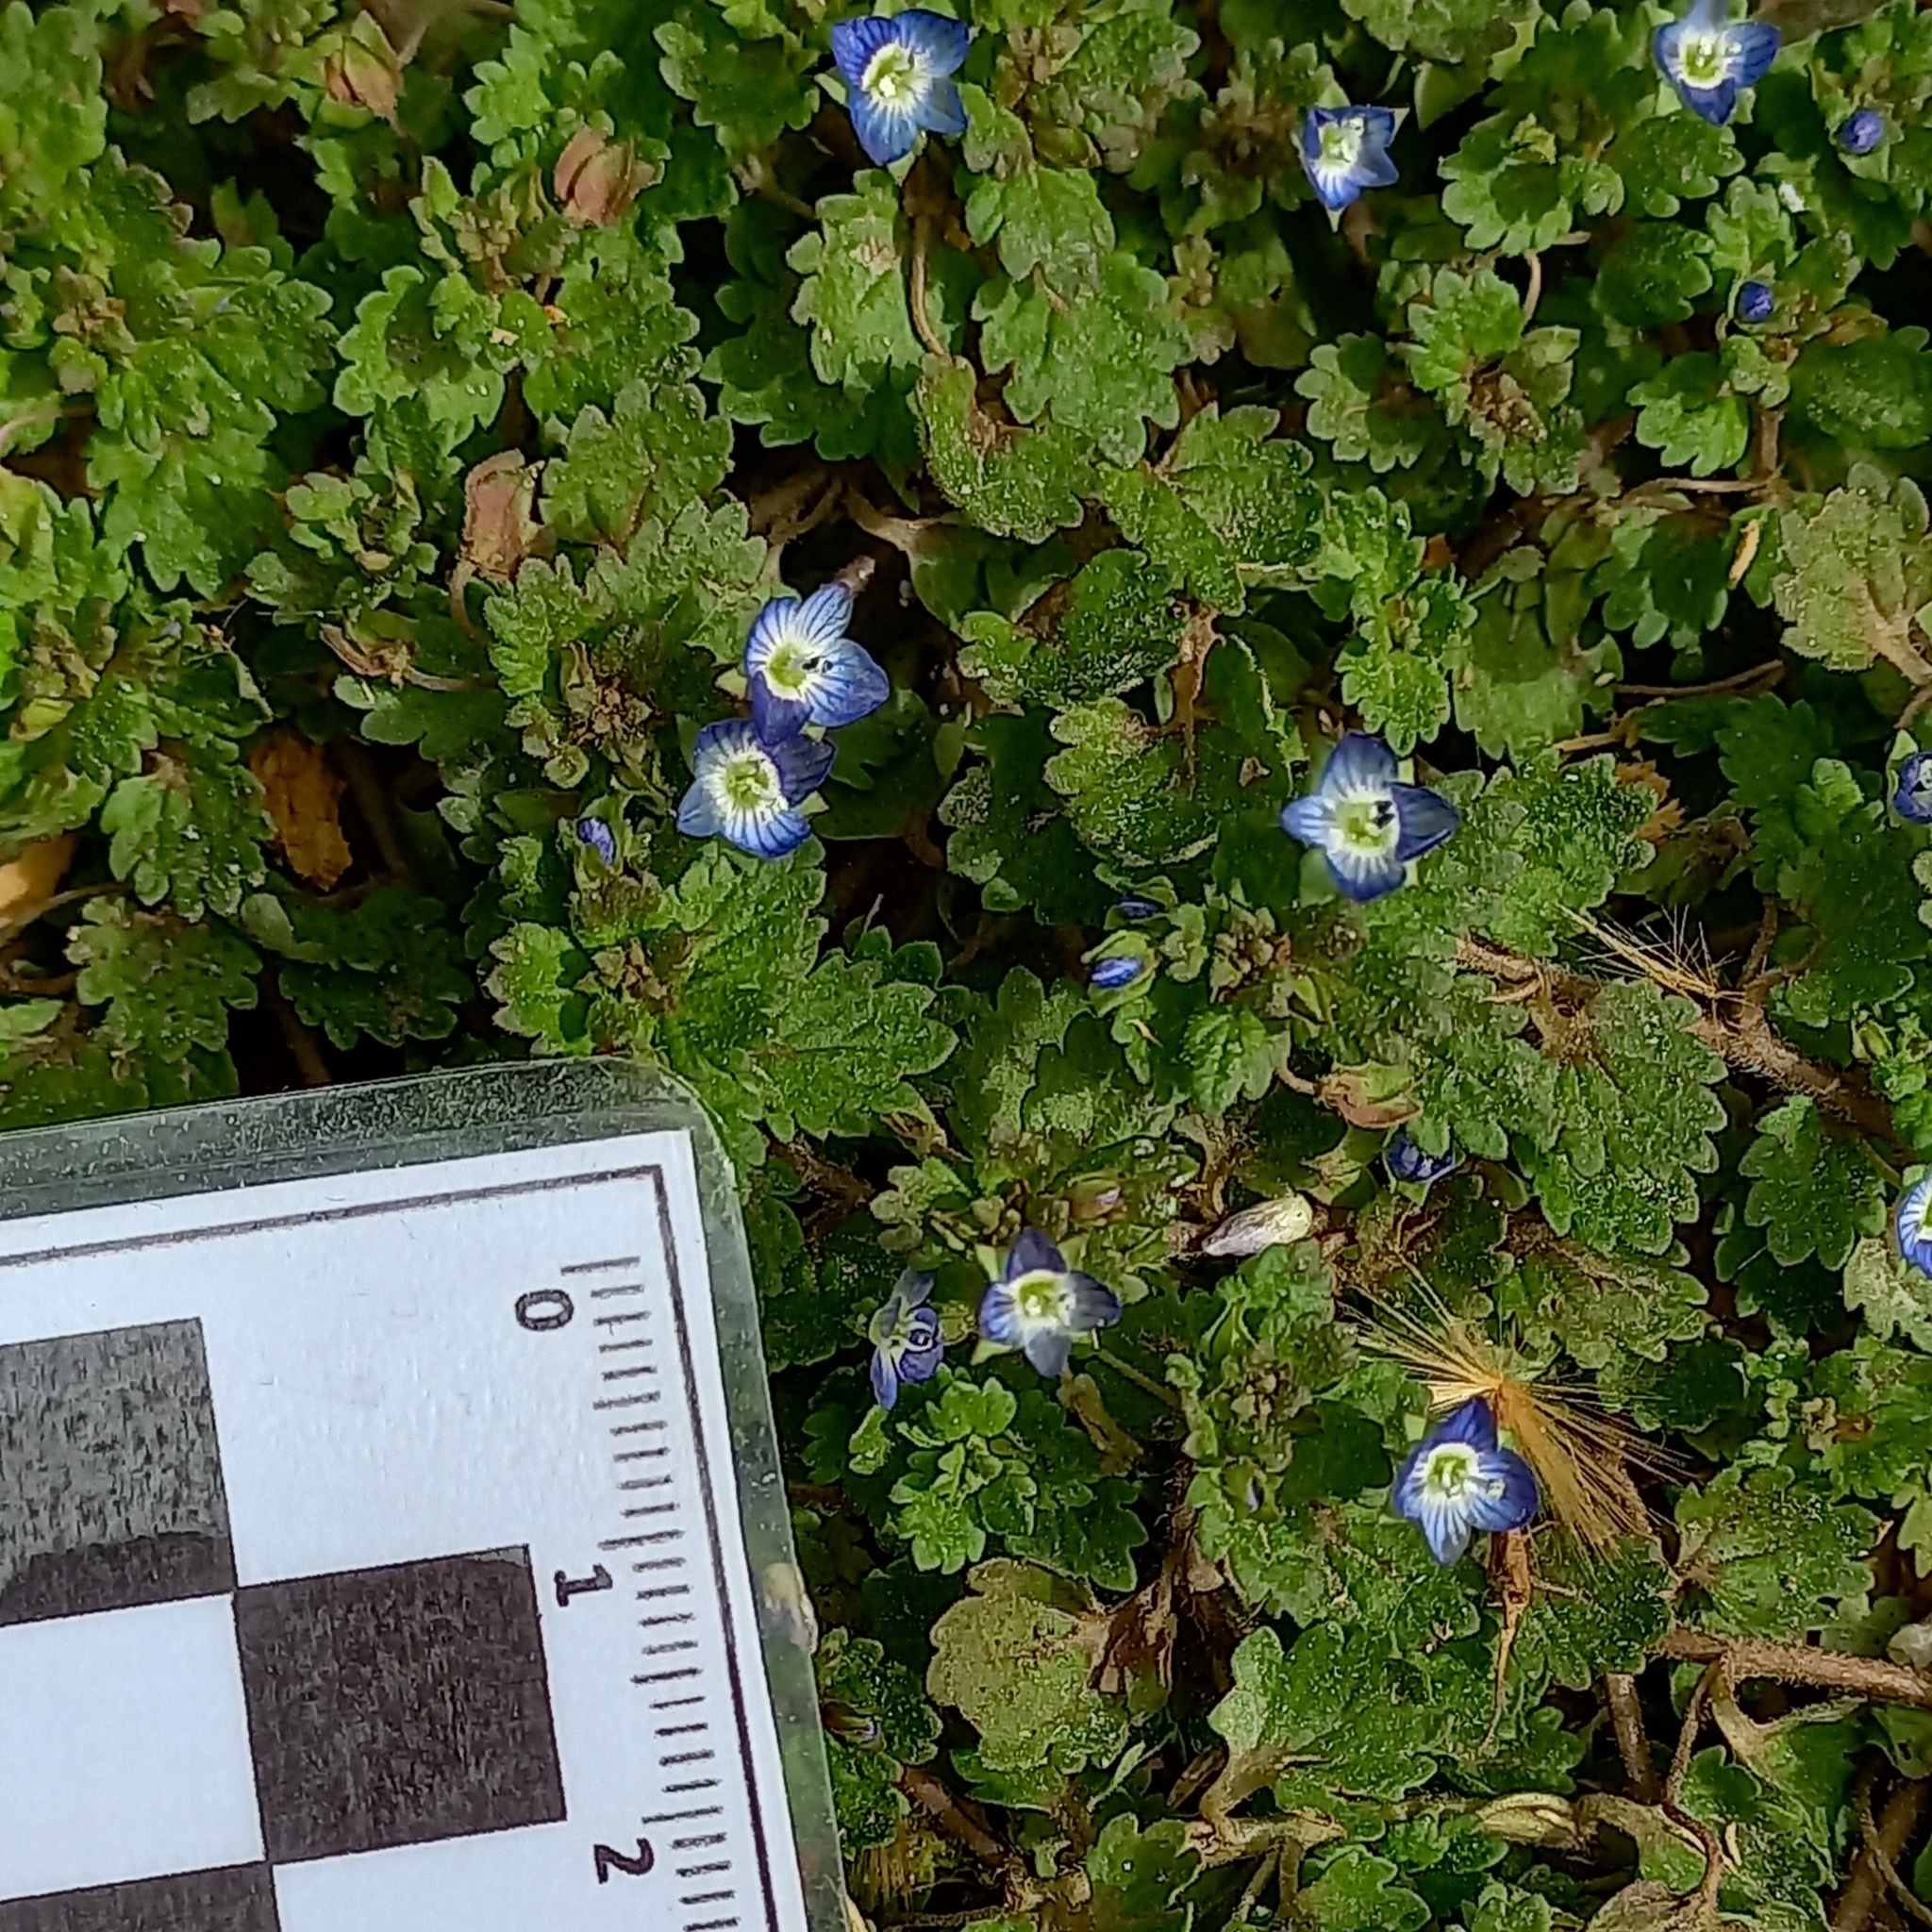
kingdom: Plantae
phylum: Tracheophyta
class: Magnoliopsida
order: Lamiales
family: Plantaginaceae
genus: Veronica
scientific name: Veronica polita
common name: Grey field-speedwell
